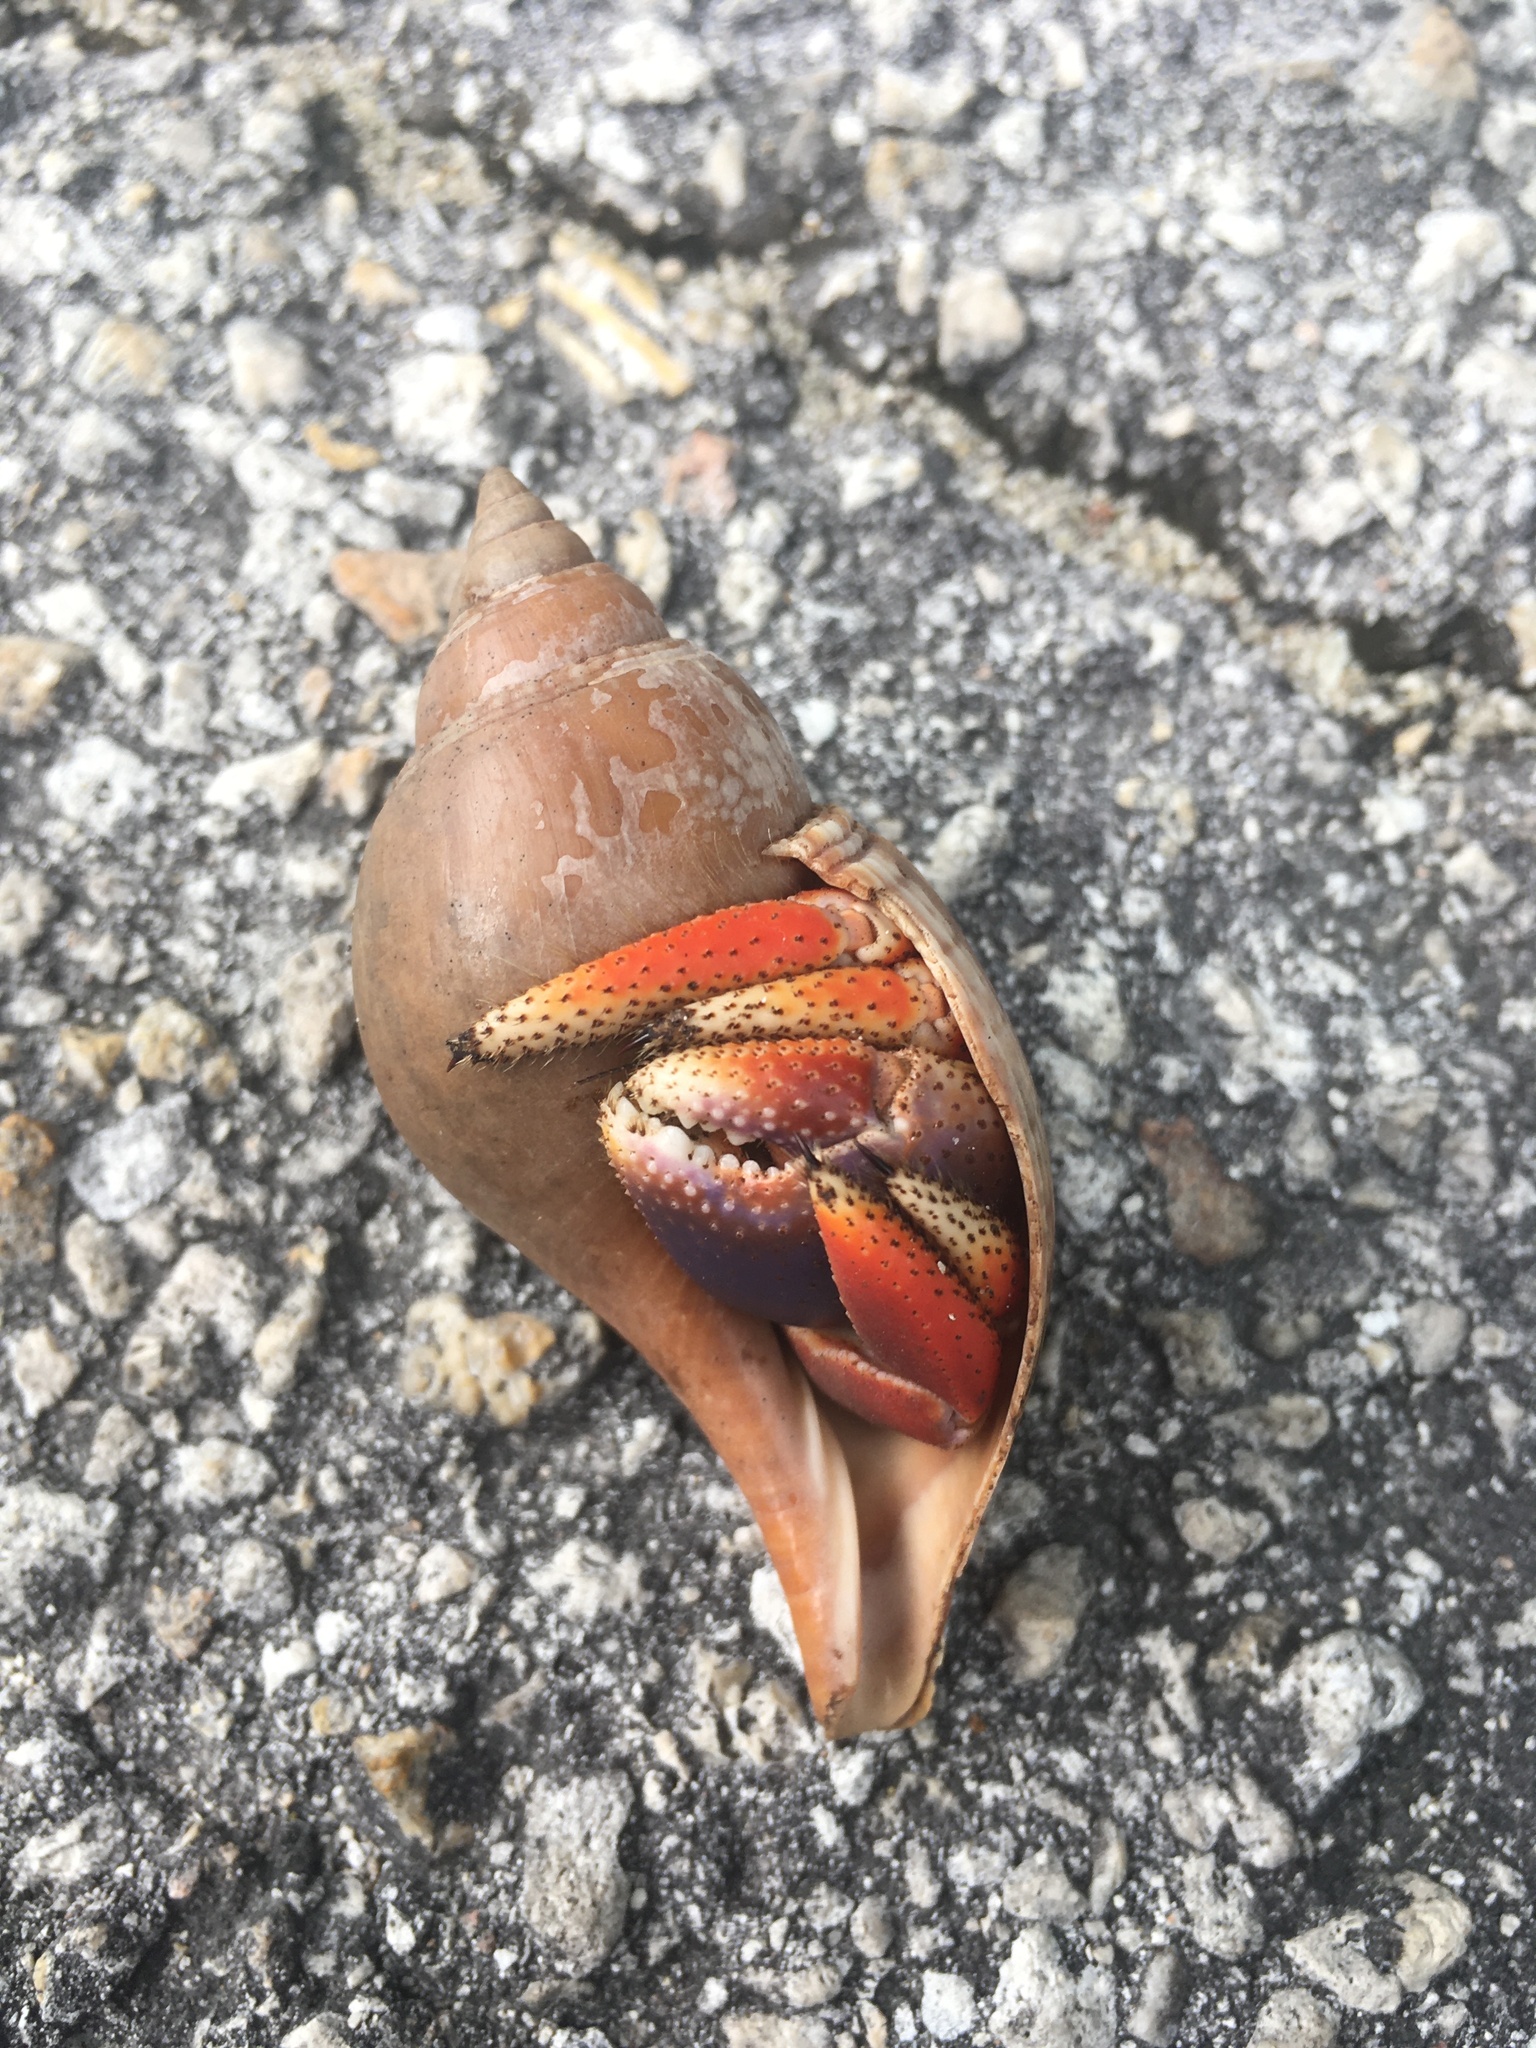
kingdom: Animalia
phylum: Mollusca
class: Gastropoda
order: Neogastropoda
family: Fasciolariidae
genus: Fasciolaria
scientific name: Fasciolaria tulipa
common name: True tulip
